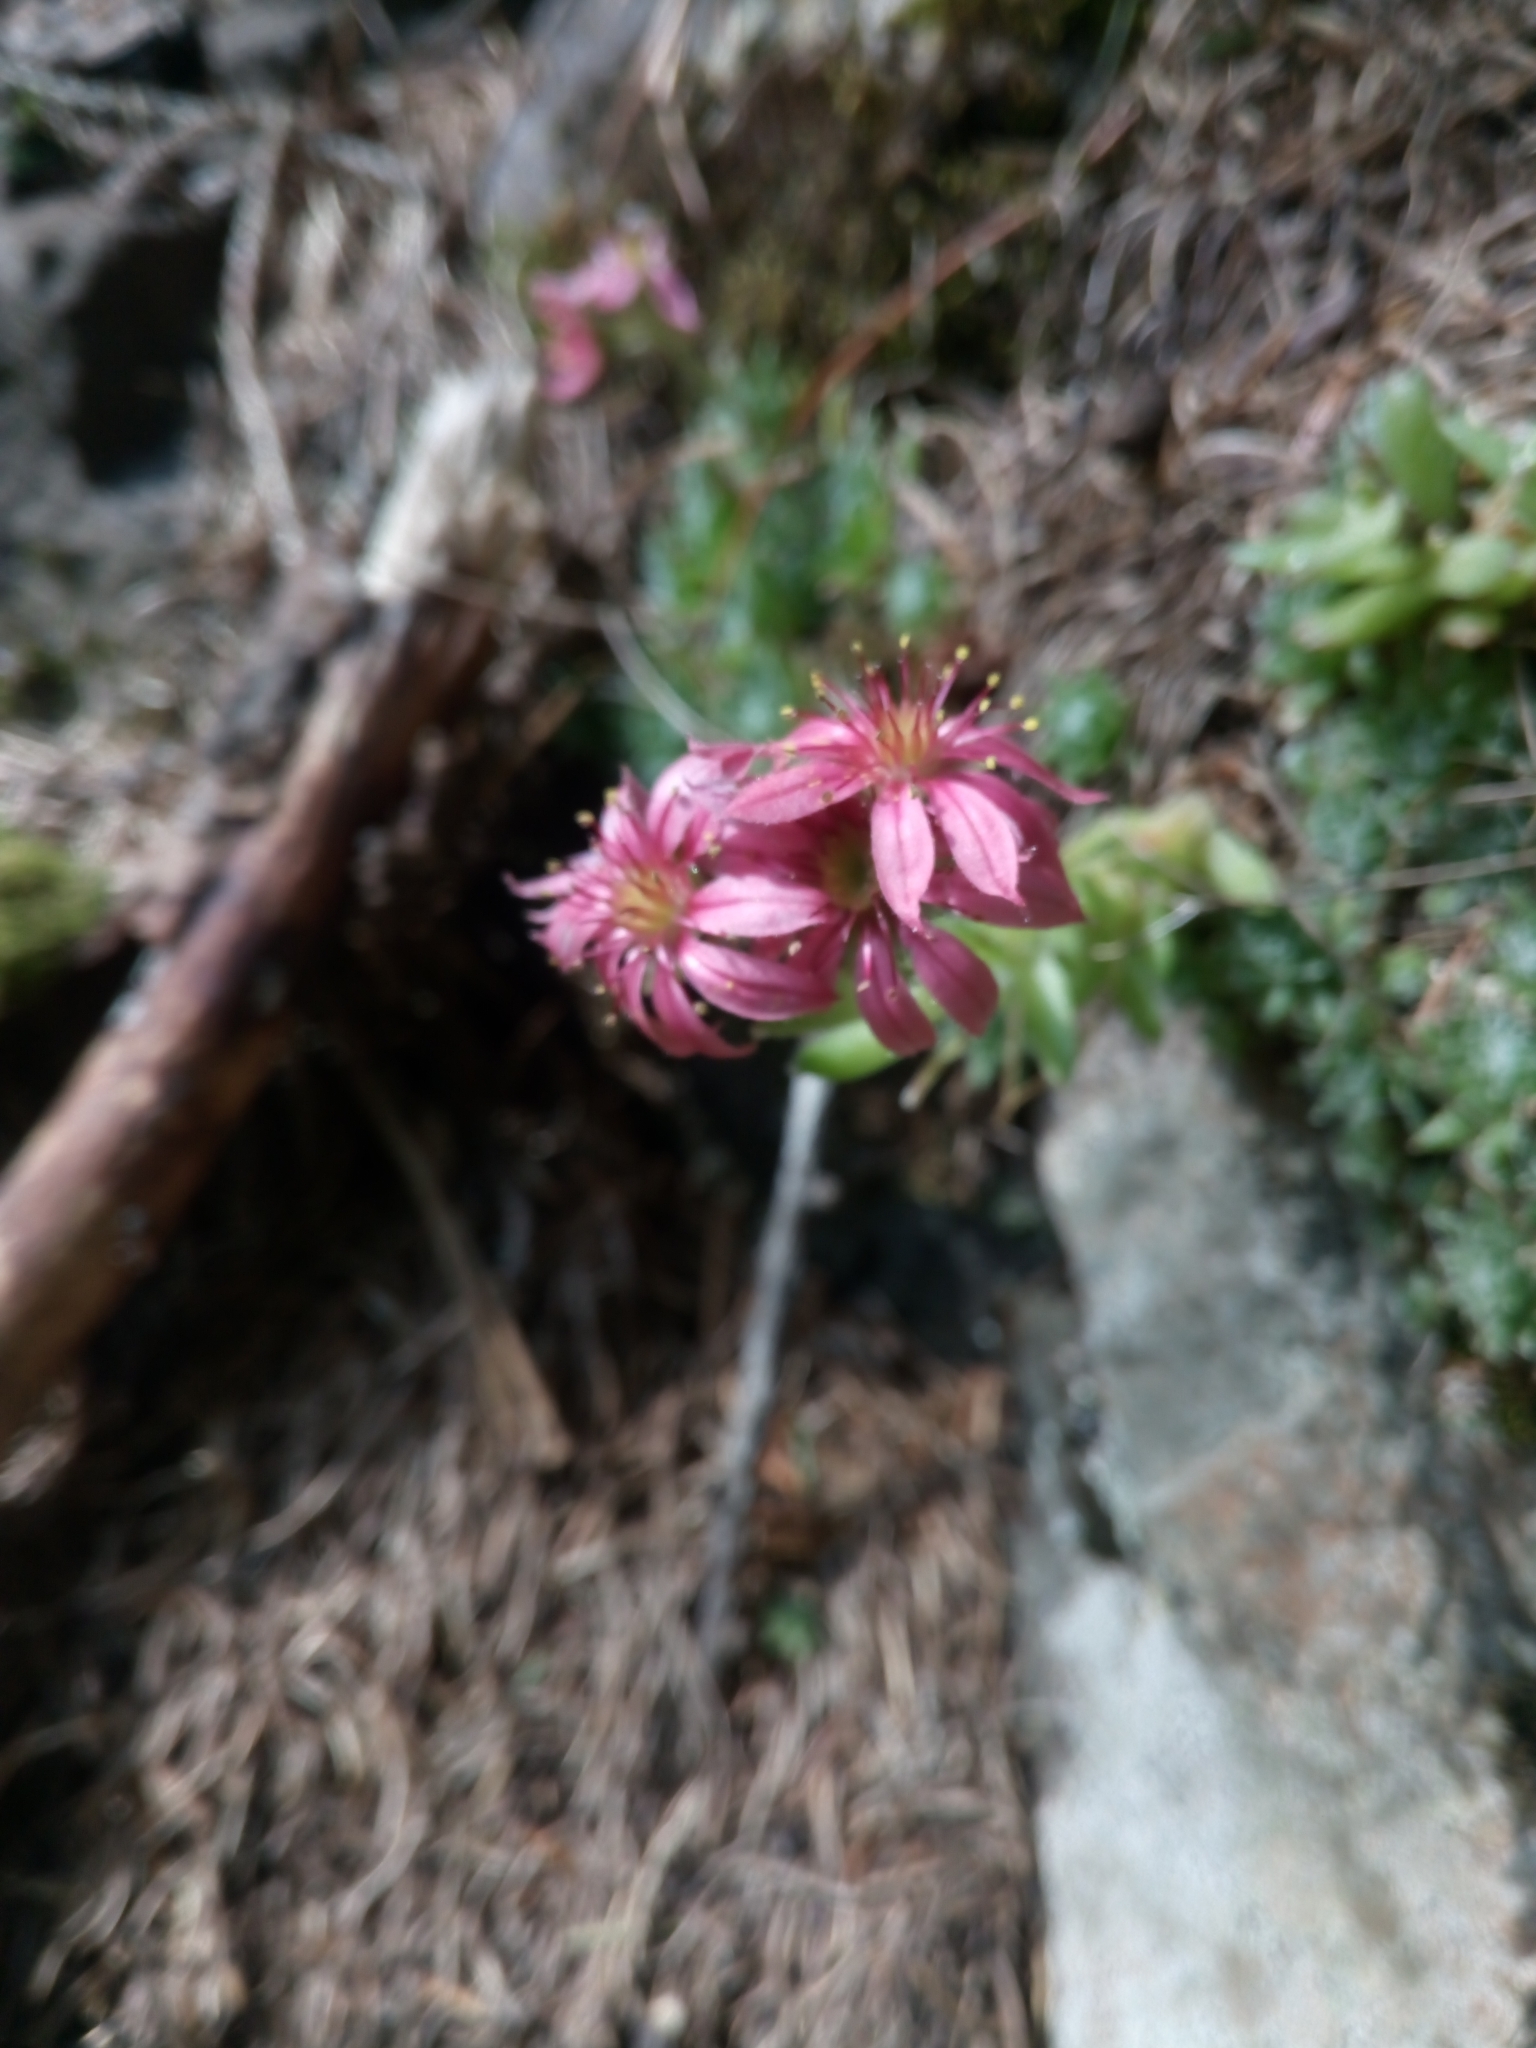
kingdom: Plantae
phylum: Tracheophyta
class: Magnoliopsida
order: Saxifragales
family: Crassulaceae
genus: Sempervivum
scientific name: Sempervivum arachnoideum
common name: Cobweb house-leek
